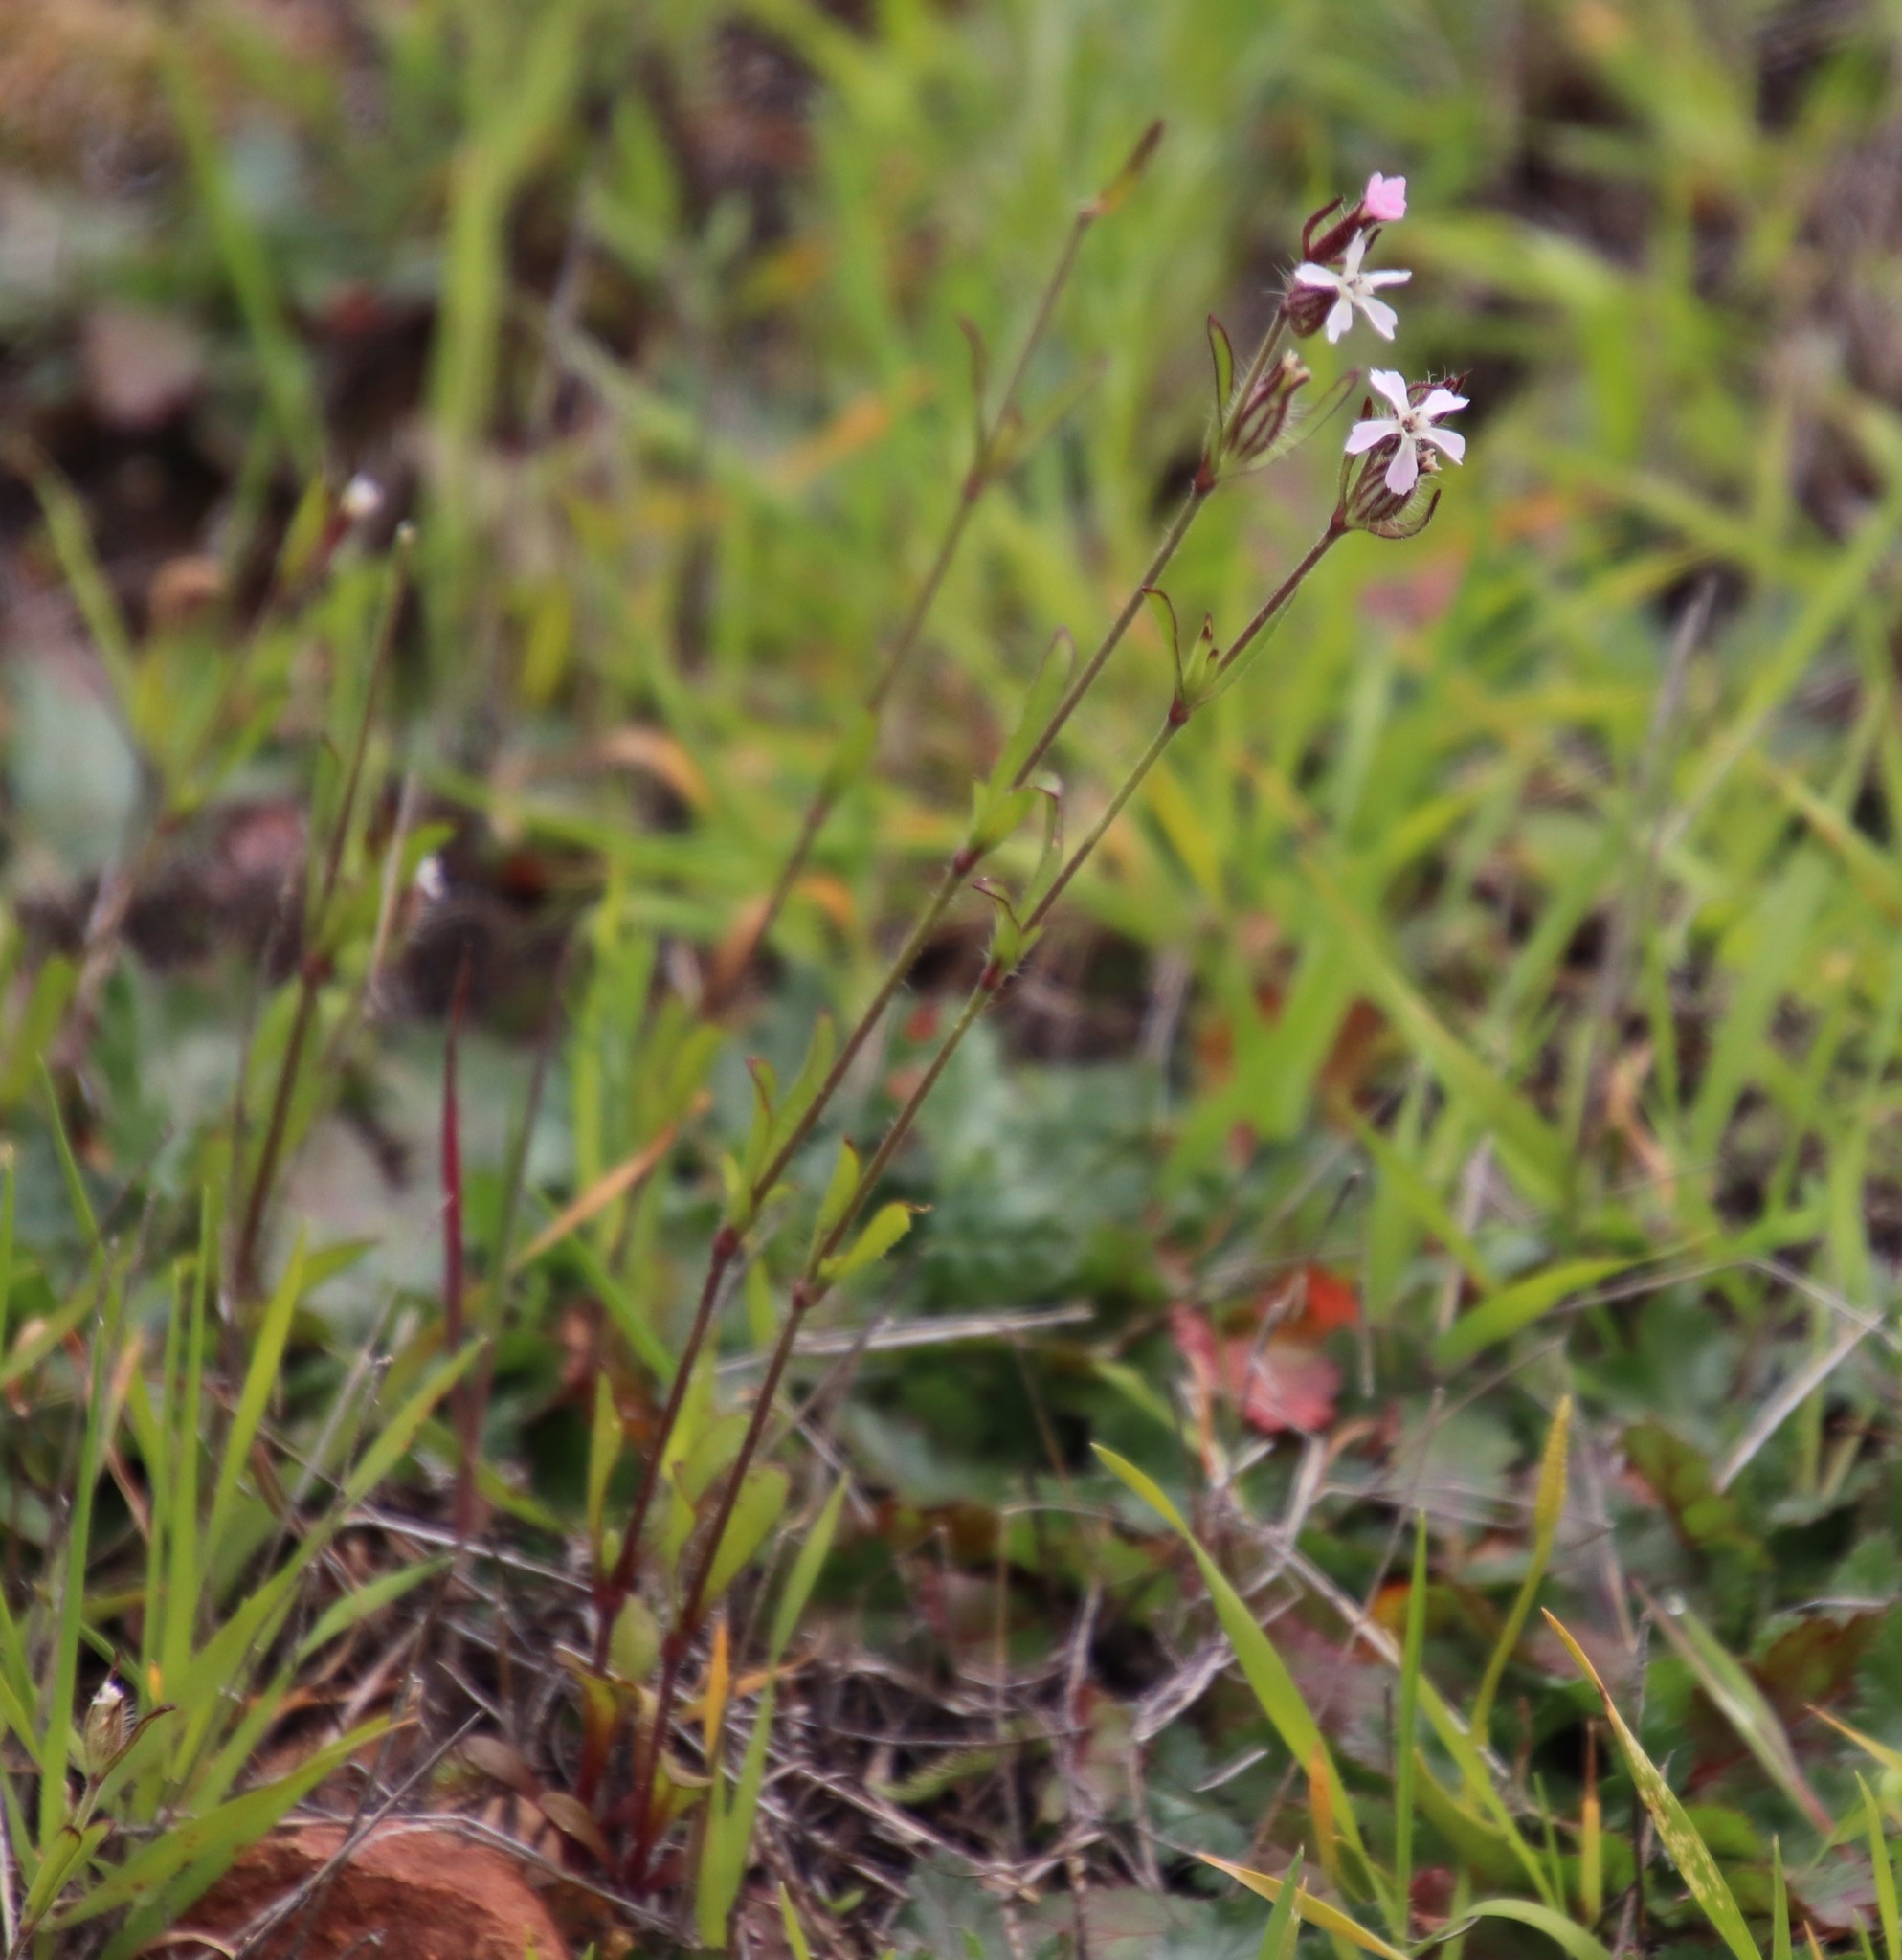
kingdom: Plantae
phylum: Tracheophyta
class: Magnoliopsida
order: Caryophyllales
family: Caryophyllaceae
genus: Silene
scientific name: Silene gallica
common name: Small-flowered catchfly
